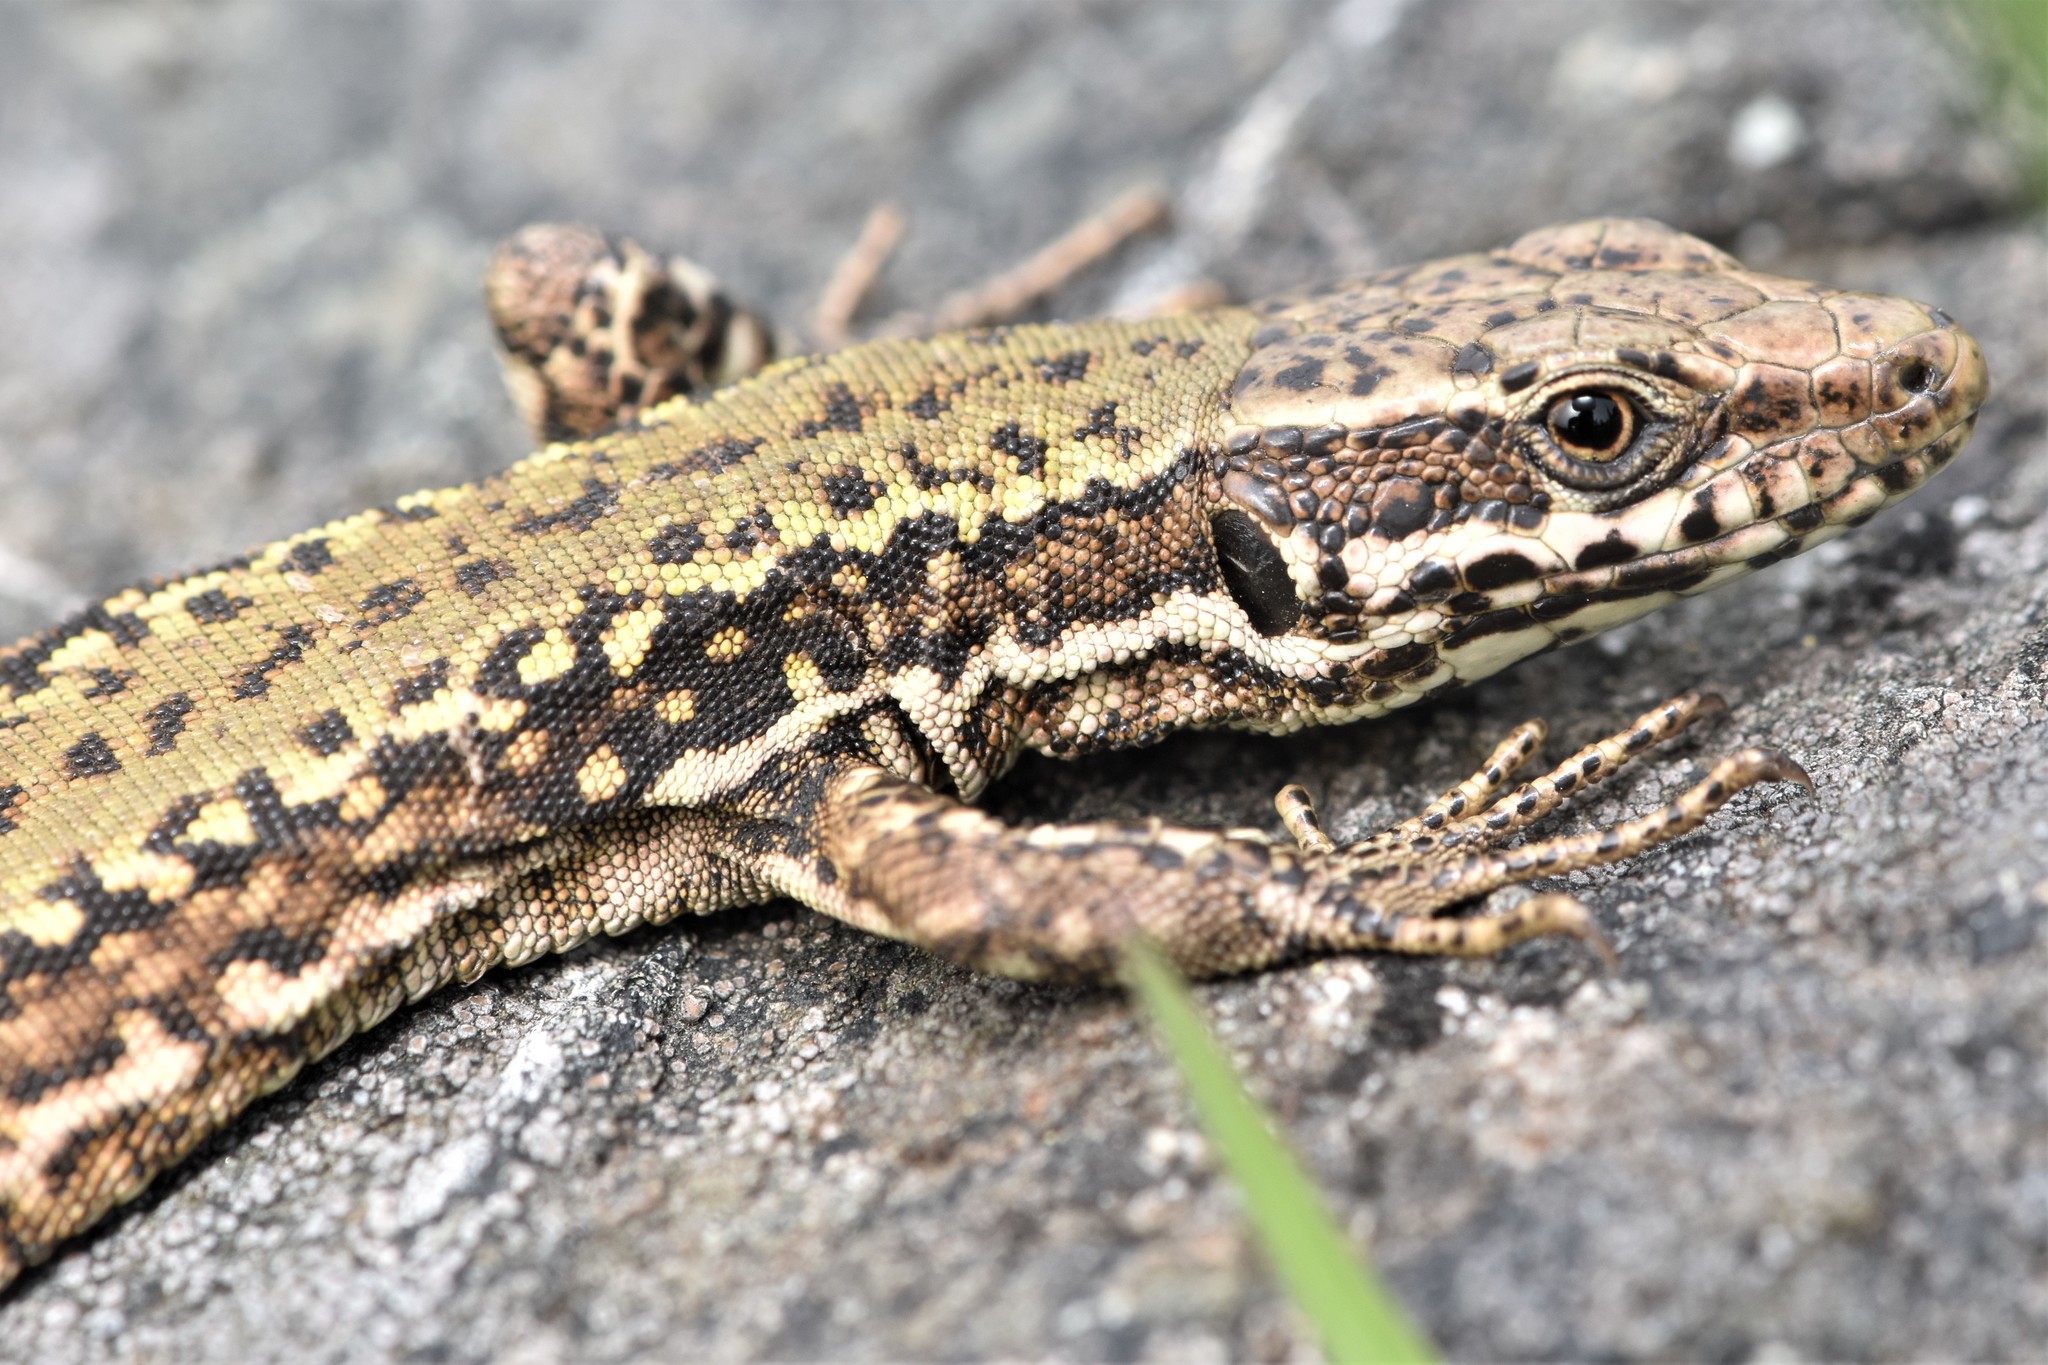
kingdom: Animalia
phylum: Chordata
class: Squamata
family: Lacertidae
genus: Podarcis
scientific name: Podarcis muralis
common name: Common wall lizard
